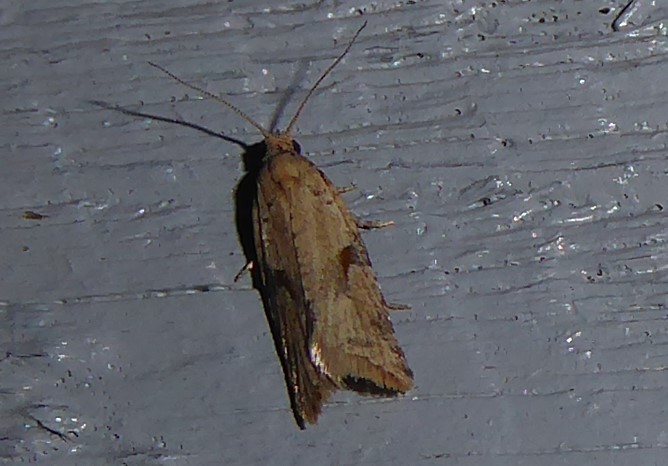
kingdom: Animalia
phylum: Arthropoda
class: Insecta
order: Lepidoptera
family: Tortricidae
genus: Capua
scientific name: Capua semiferana
